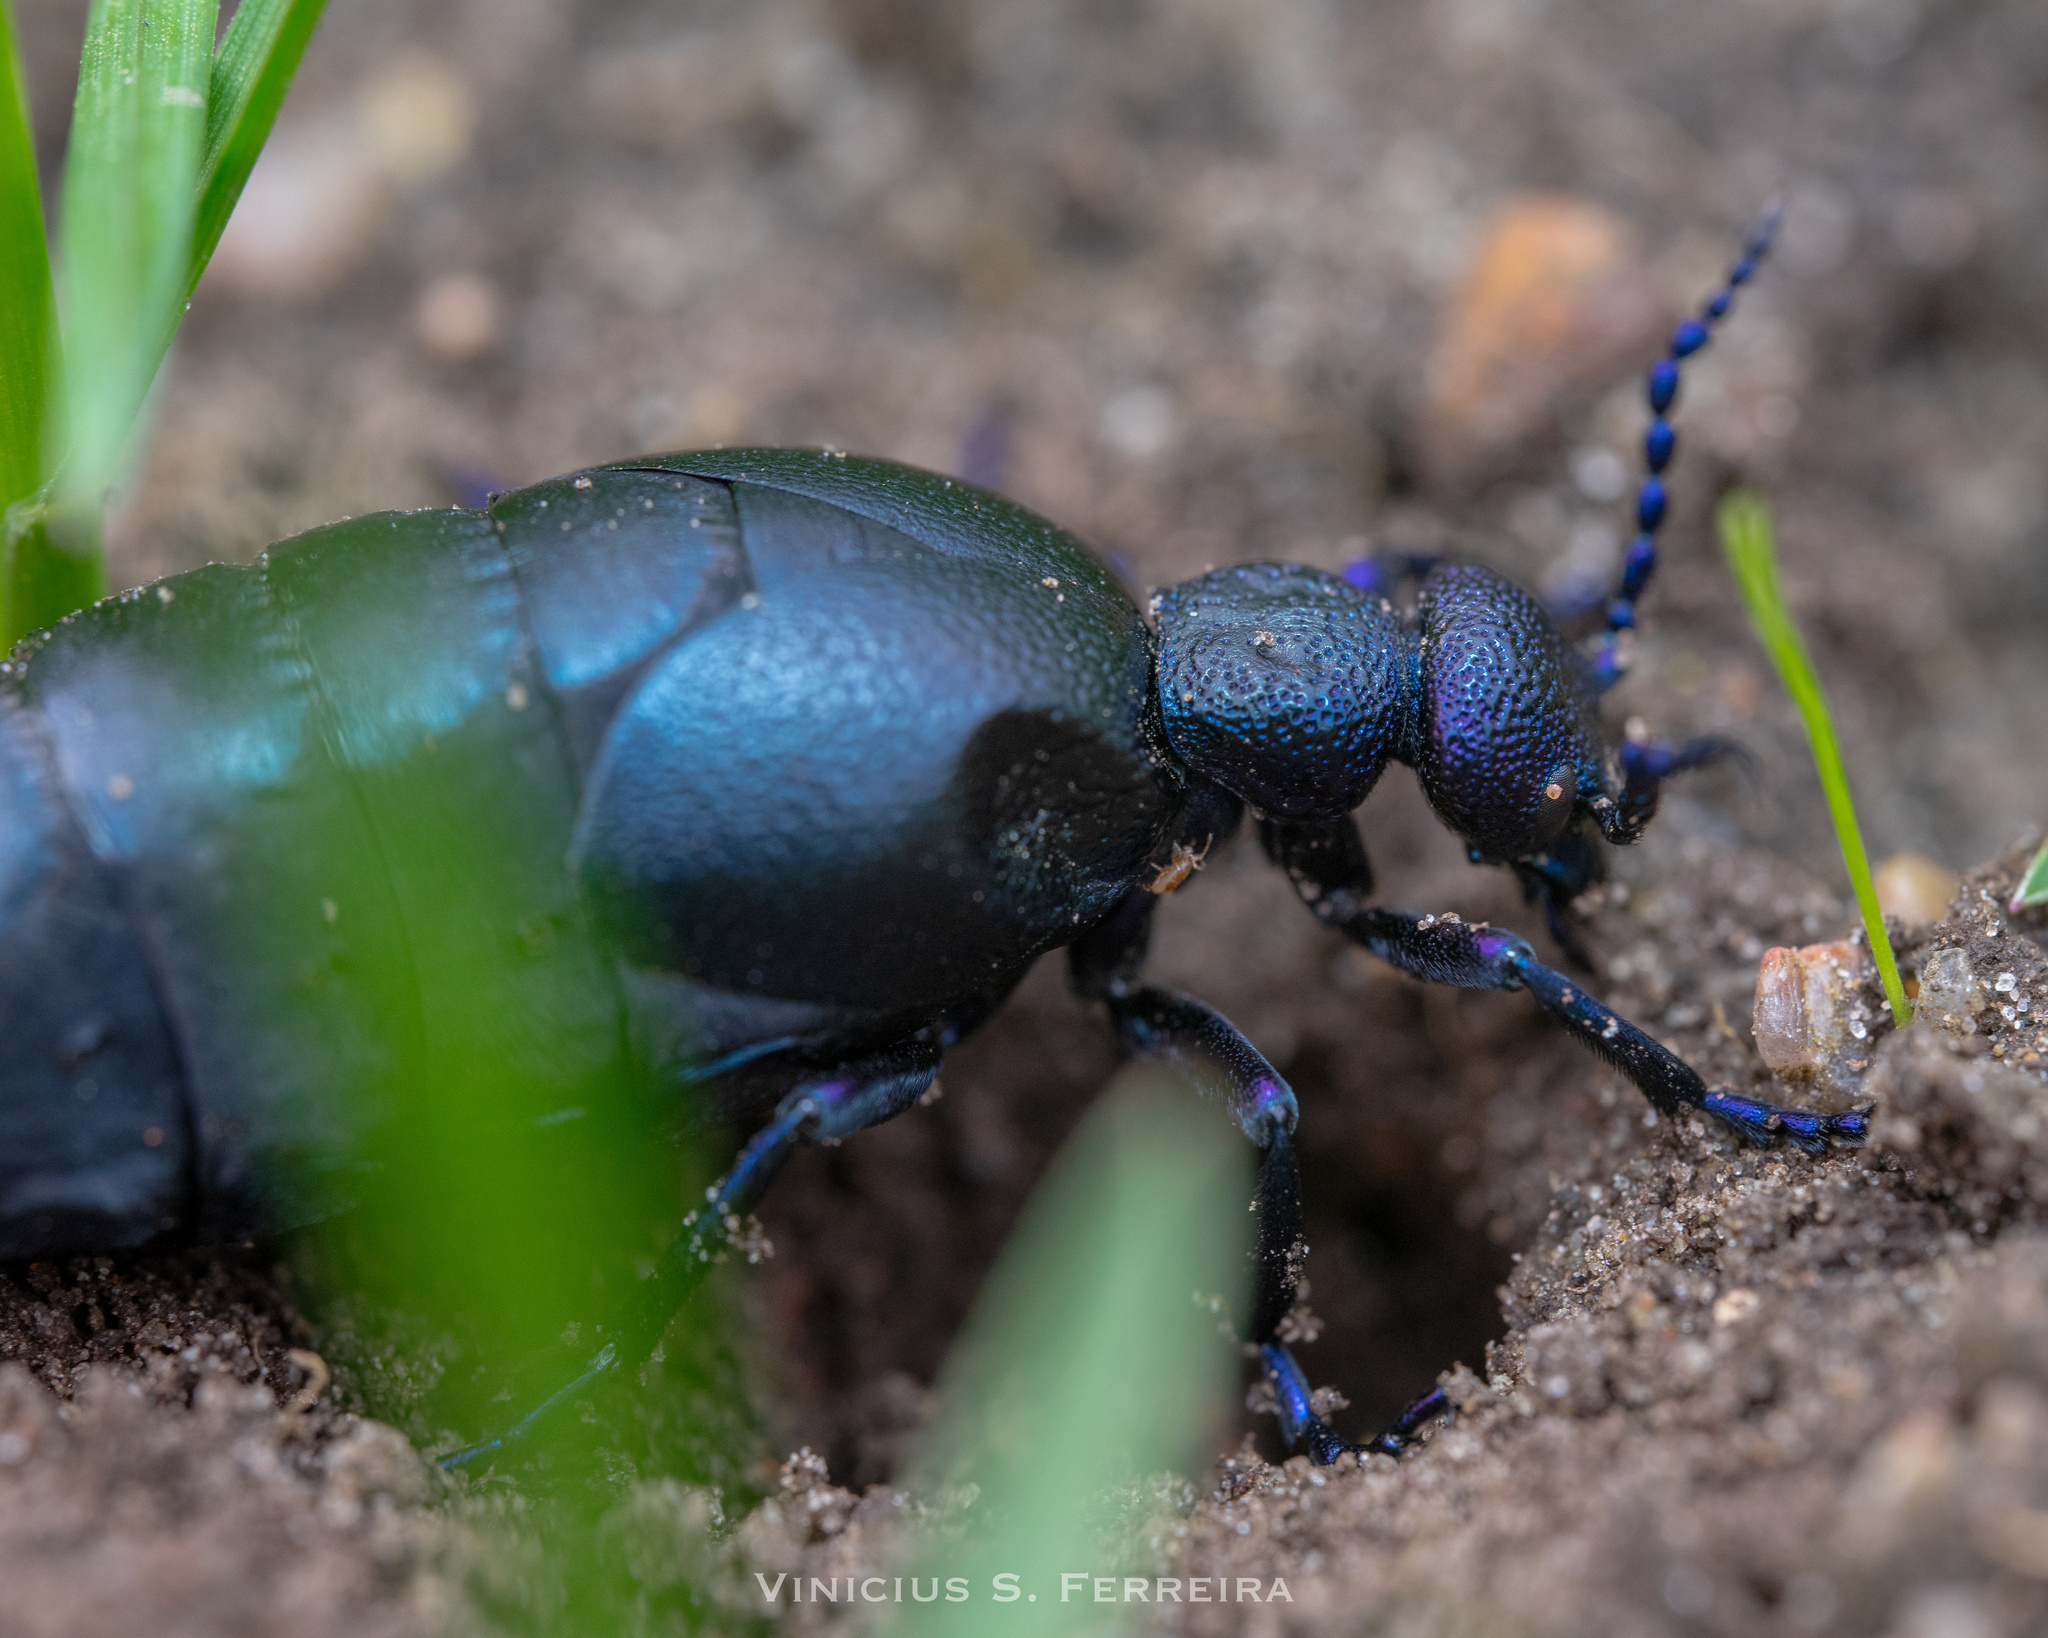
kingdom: Animalia
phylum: Arthropoda
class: Insecta
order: Coleoptera
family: Meloidae
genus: Meloe
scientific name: Meloe proscarabaeus
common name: Black oil-beetle
